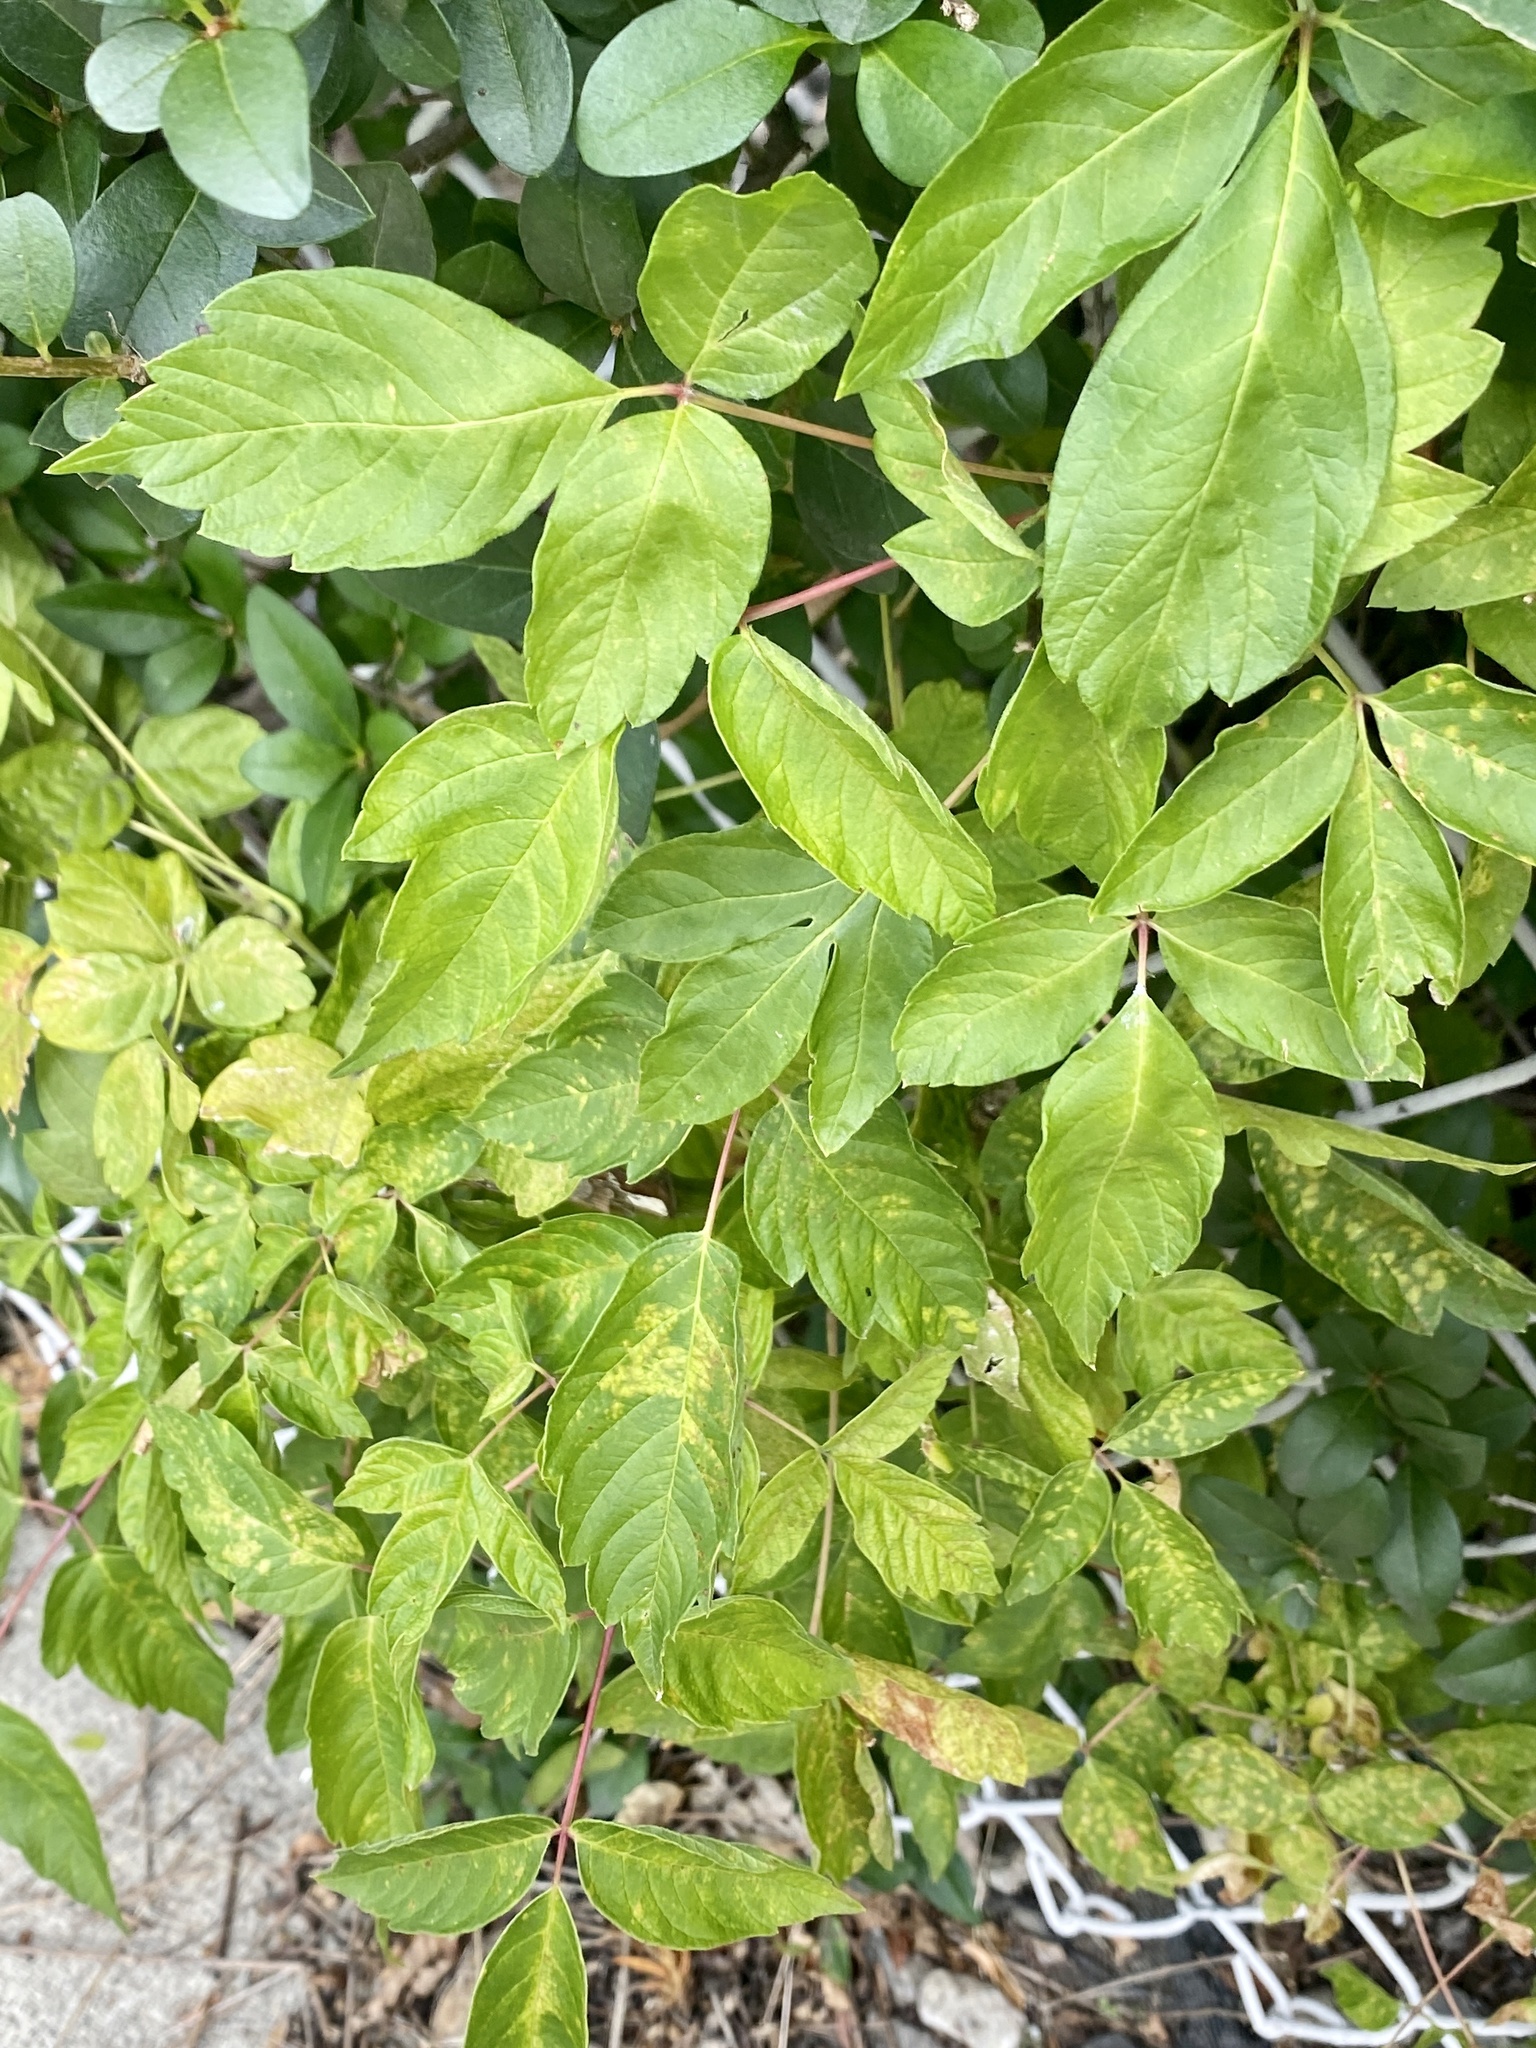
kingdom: Plantae
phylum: Tracheophyta
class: Magnoliopsida
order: Sapindales
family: Sapindaceae
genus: Acer
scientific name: Acer negundo
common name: Ashleaf maple
